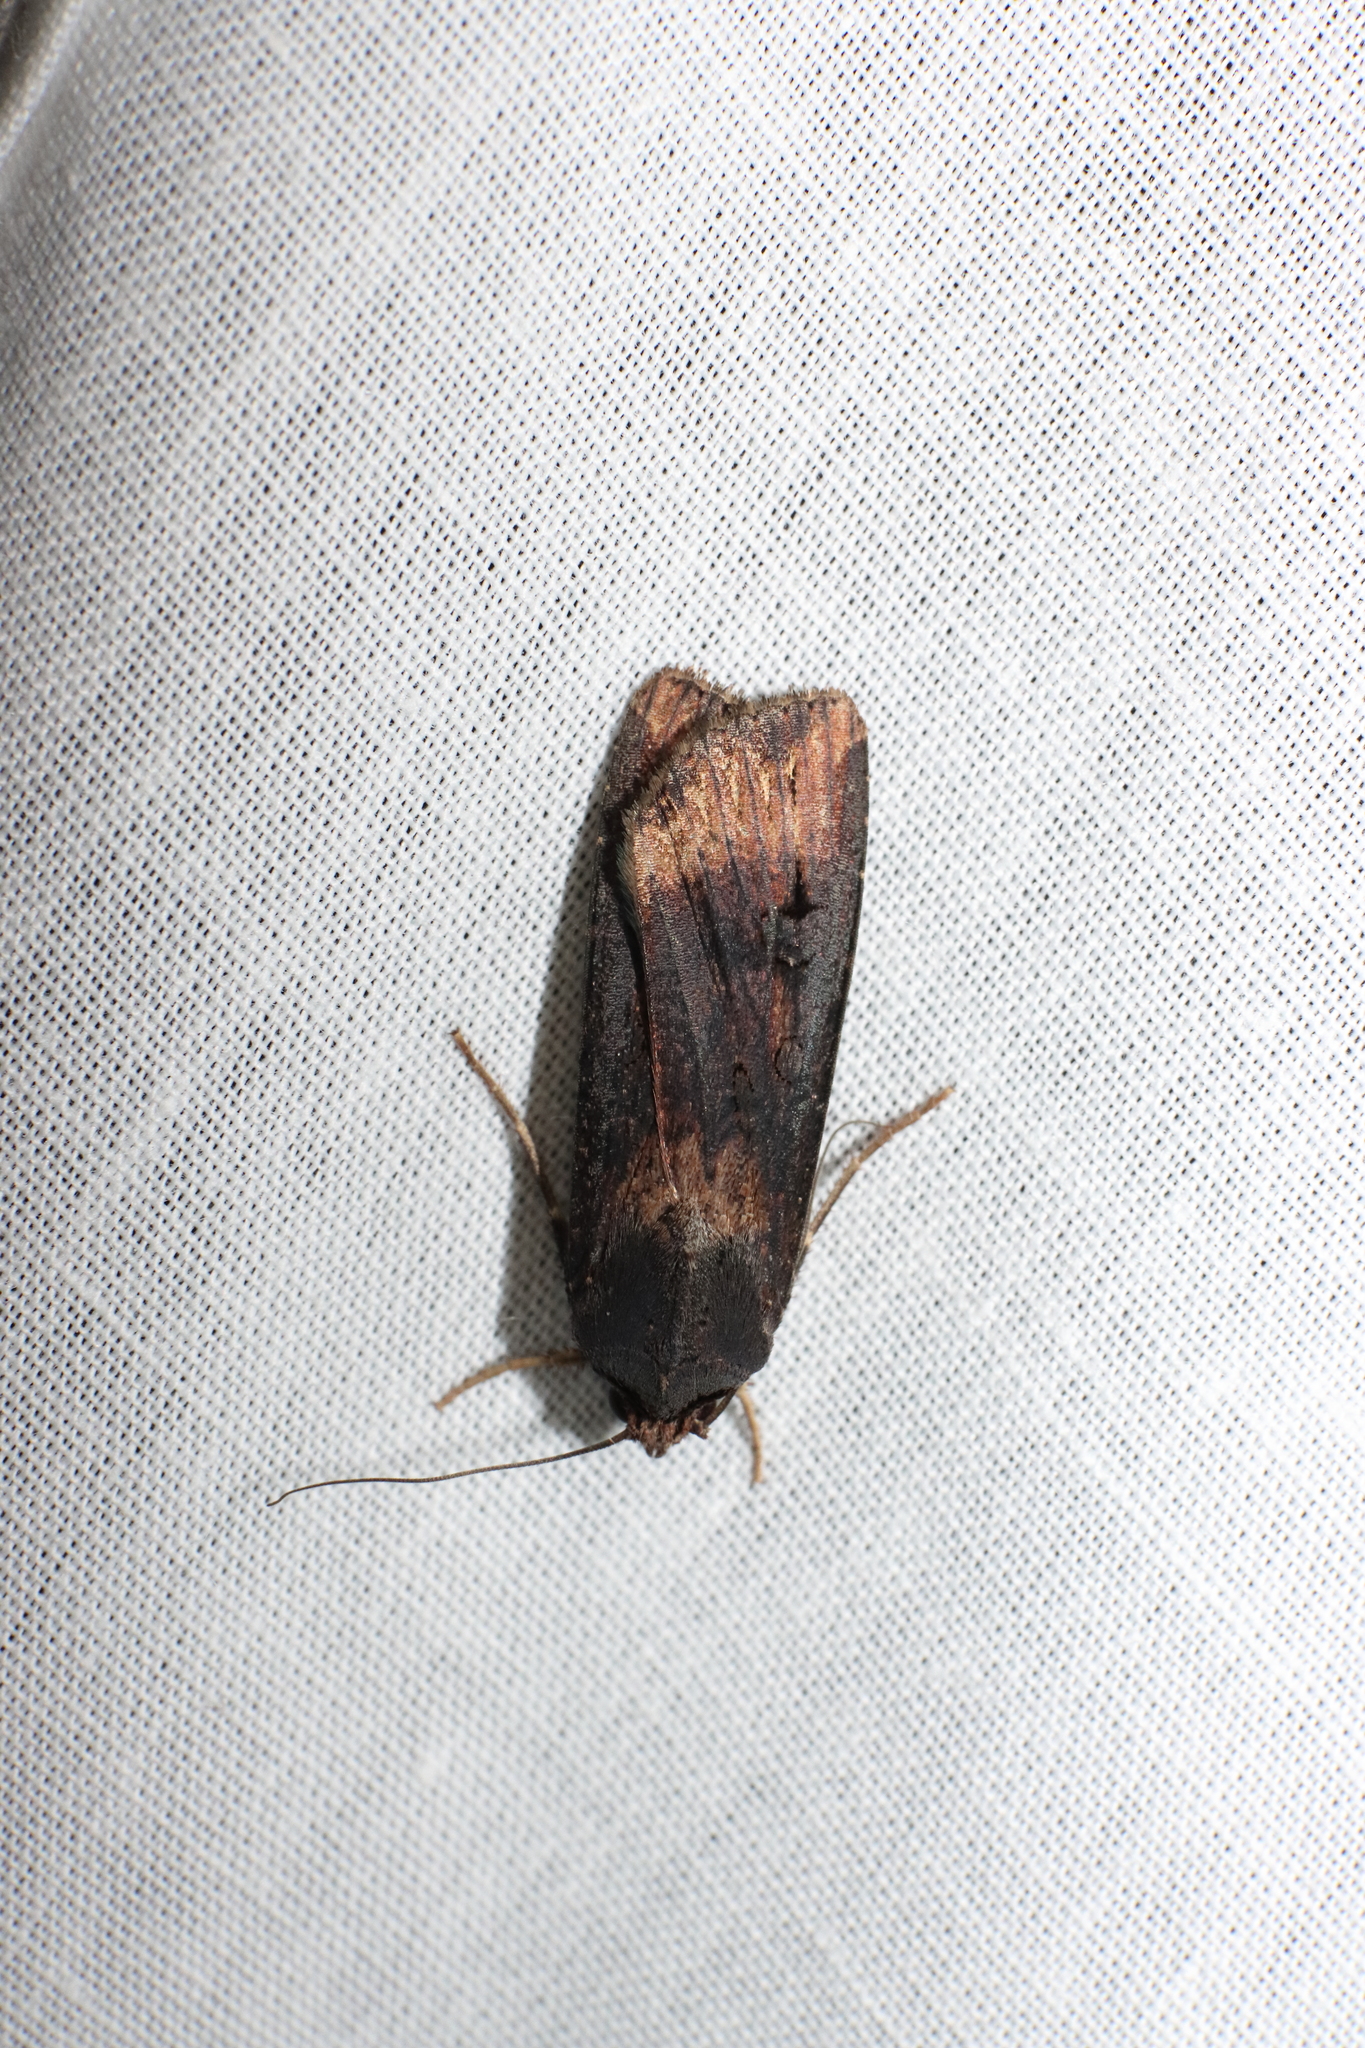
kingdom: Animalia
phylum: Arthropoda
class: Insecta
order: Lepidoptera
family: Noctuidae
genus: Agrotis
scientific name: Agrotis ipsilon
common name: Dark sword-grass
